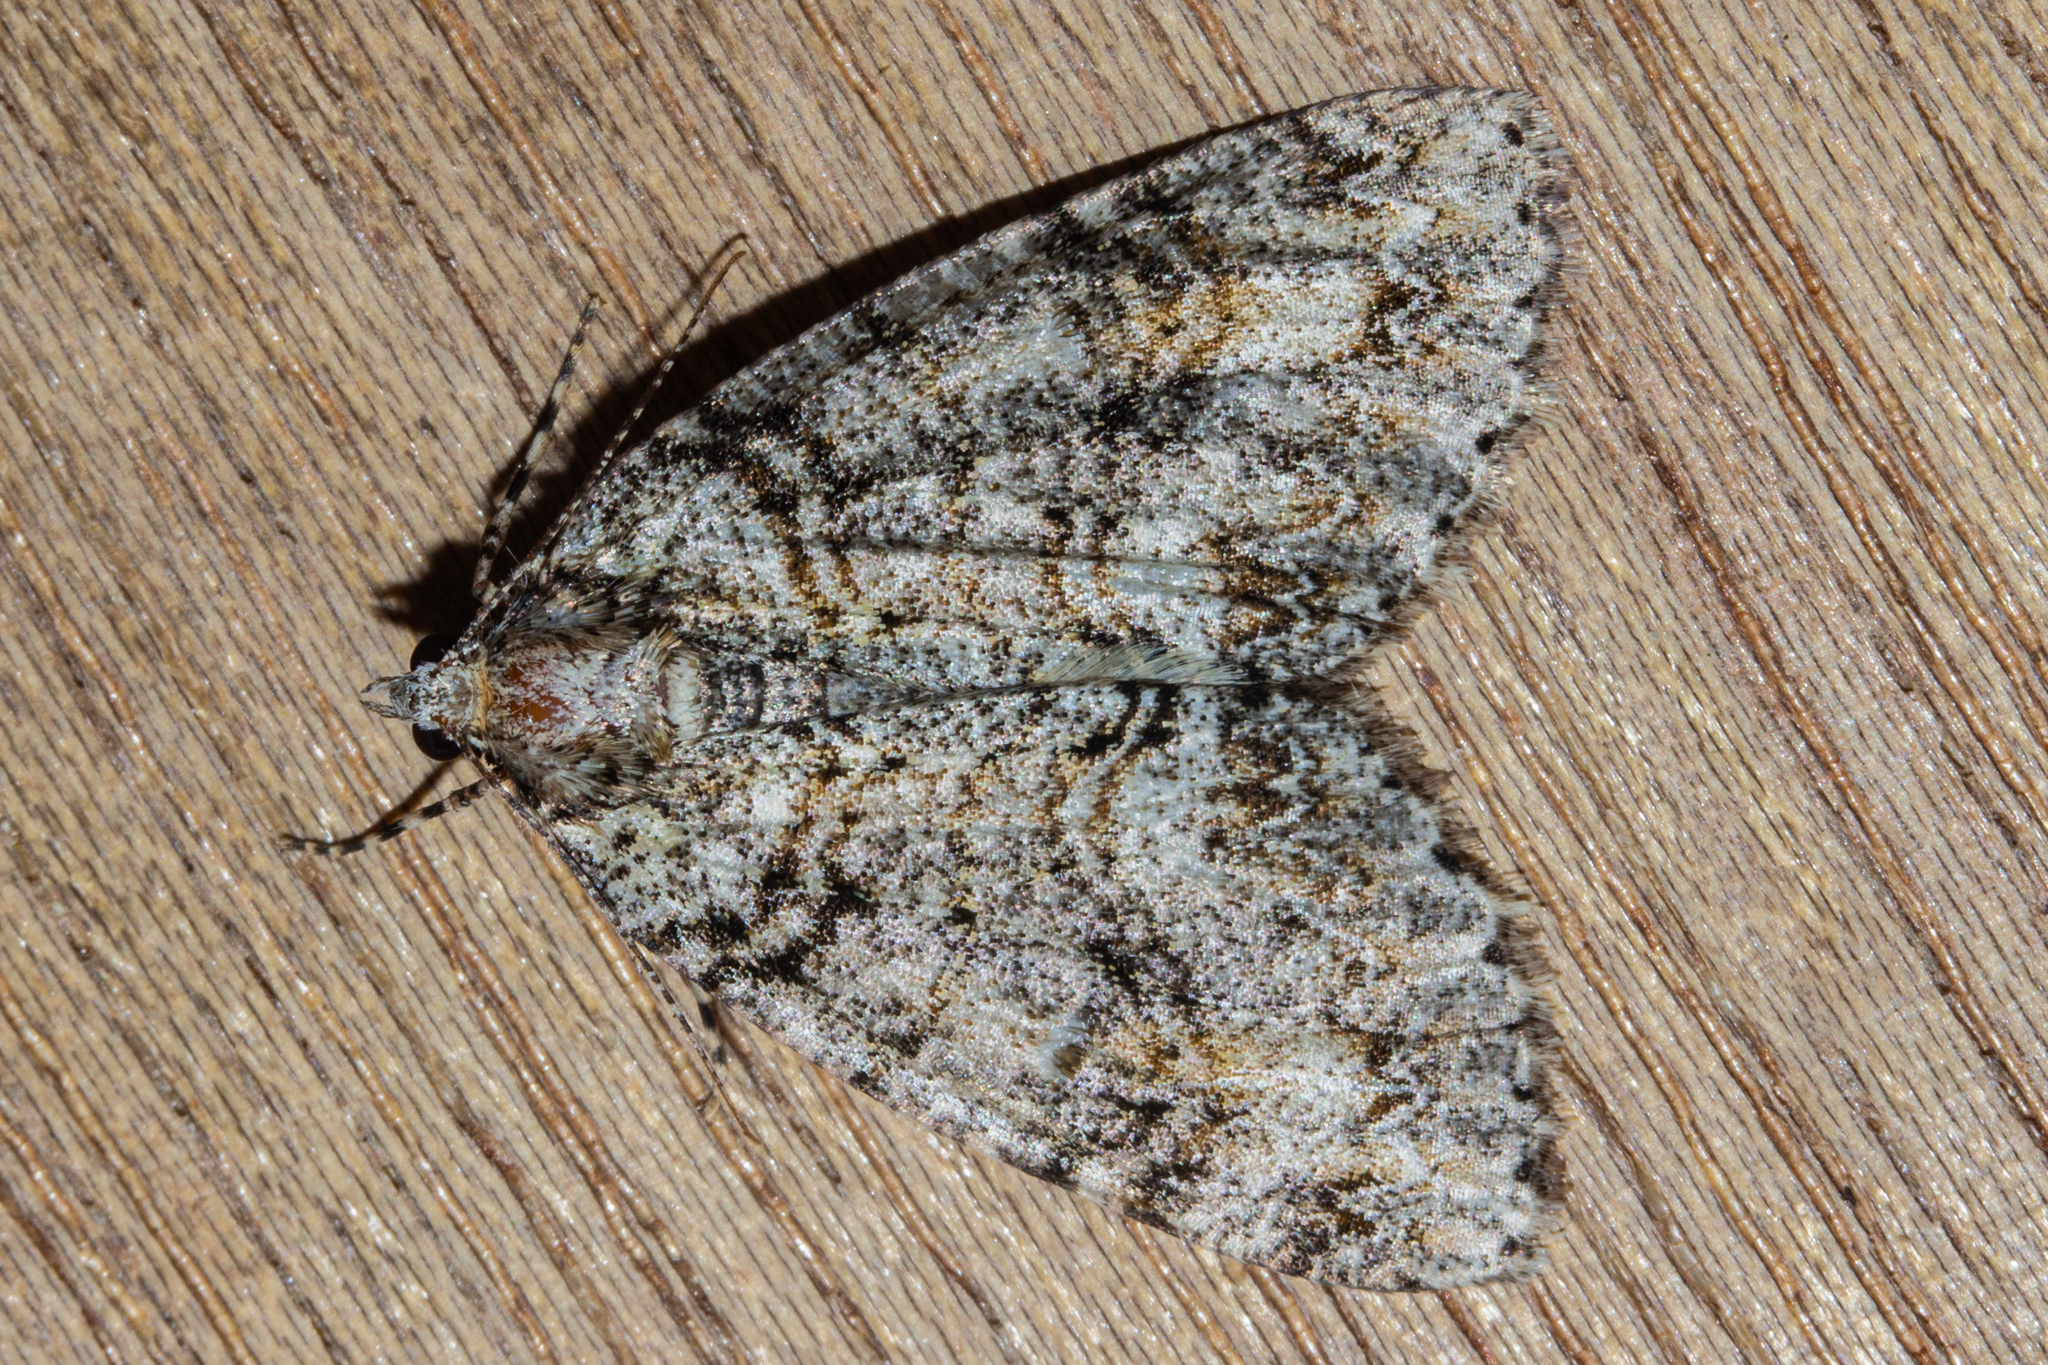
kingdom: Animalia
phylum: Arthropoda
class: Insecta
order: Lepidoptera
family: Geometridae
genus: Pseudocoremia
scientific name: Pseudocoremia suavis
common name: Common forest looper
